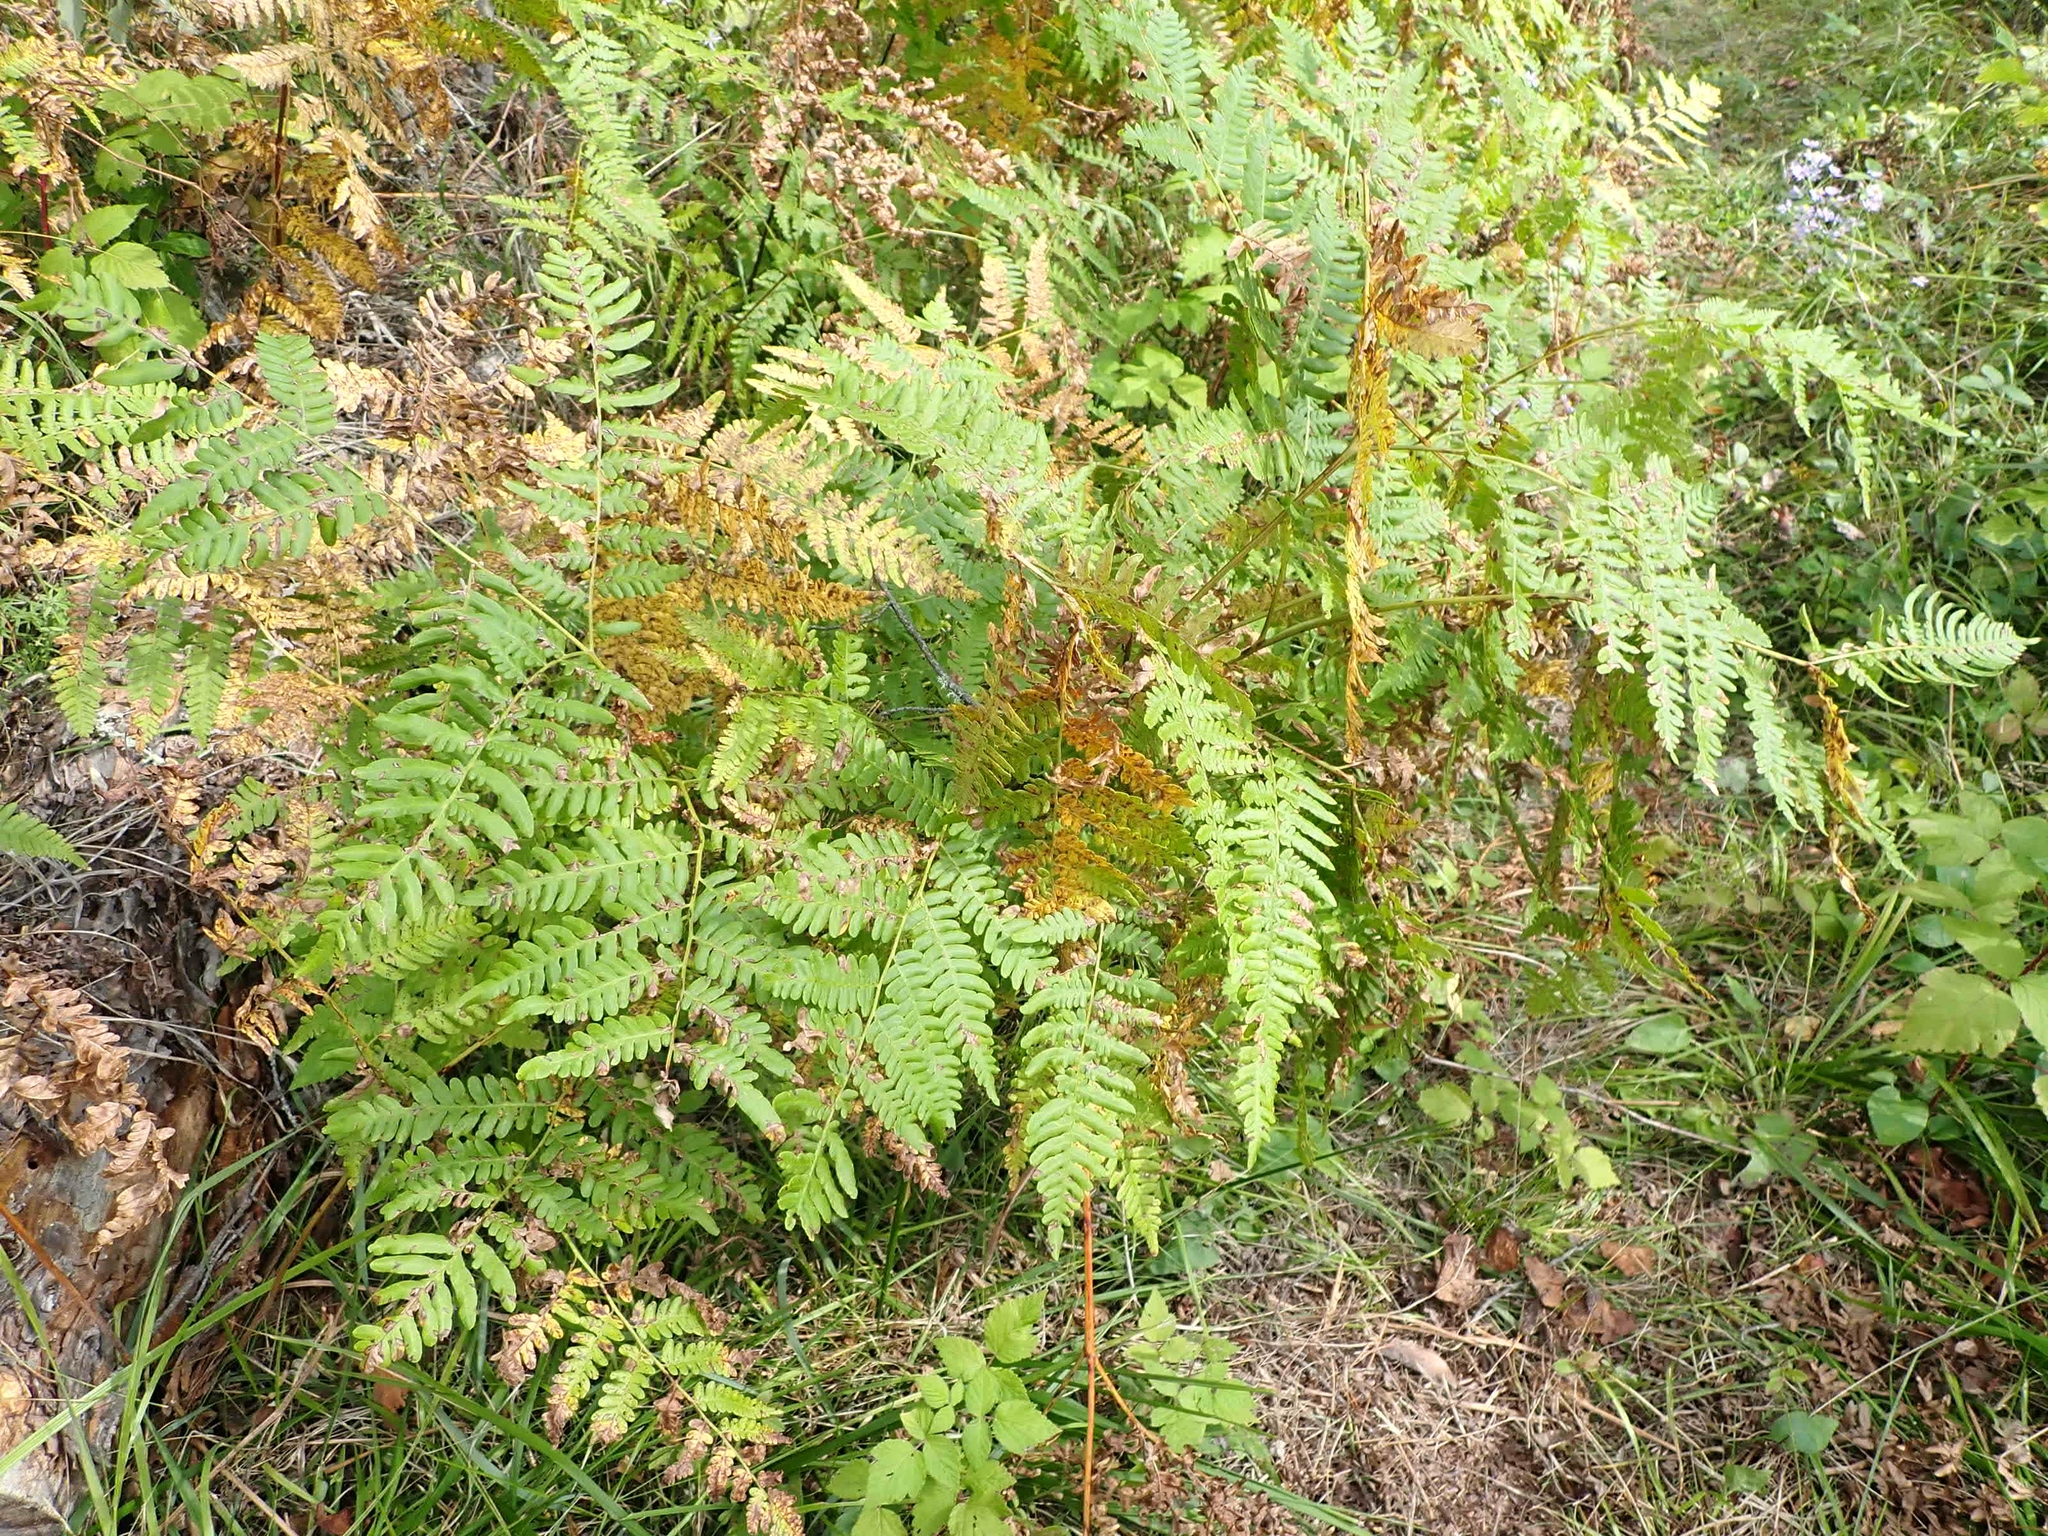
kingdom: Plantae
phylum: Tracheophyta
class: Polypodiopsida
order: Polypodiales
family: Dennstaedtiaceae
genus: Pteridium
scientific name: Pteridium aquilinum
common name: Bracken
